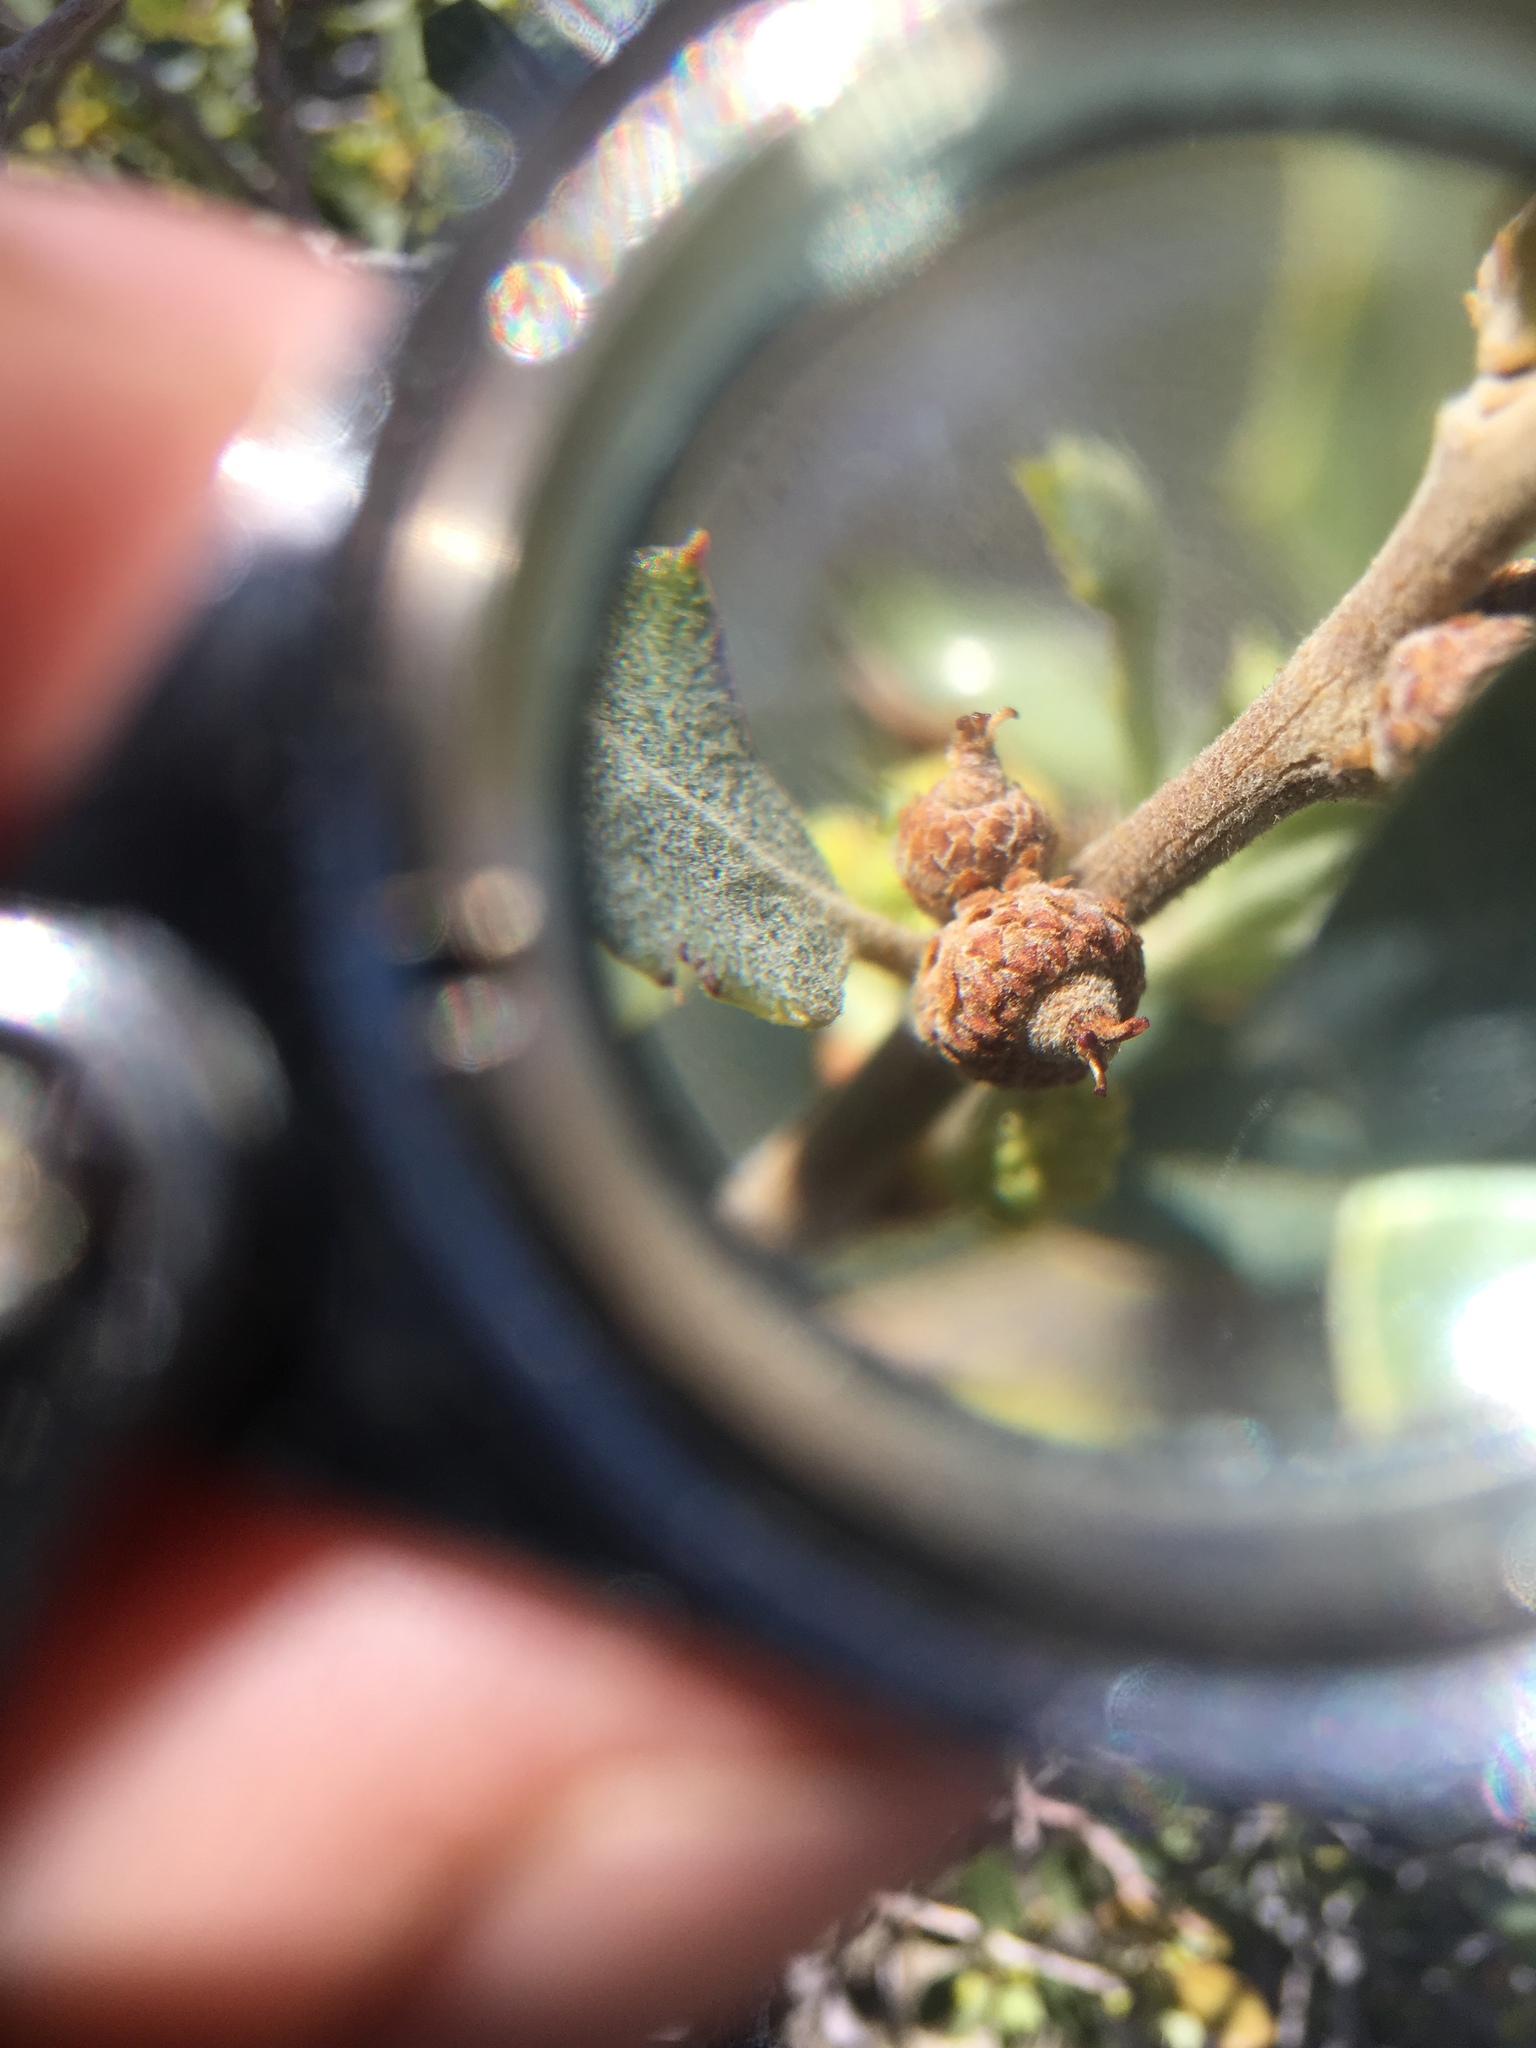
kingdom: Plantae
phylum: Tracheophyta
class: Magnoliopsida
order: Fagales
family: Fagaceae
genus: Quercus
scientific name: Quercus cornelius-mulleri
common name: Muller oak
